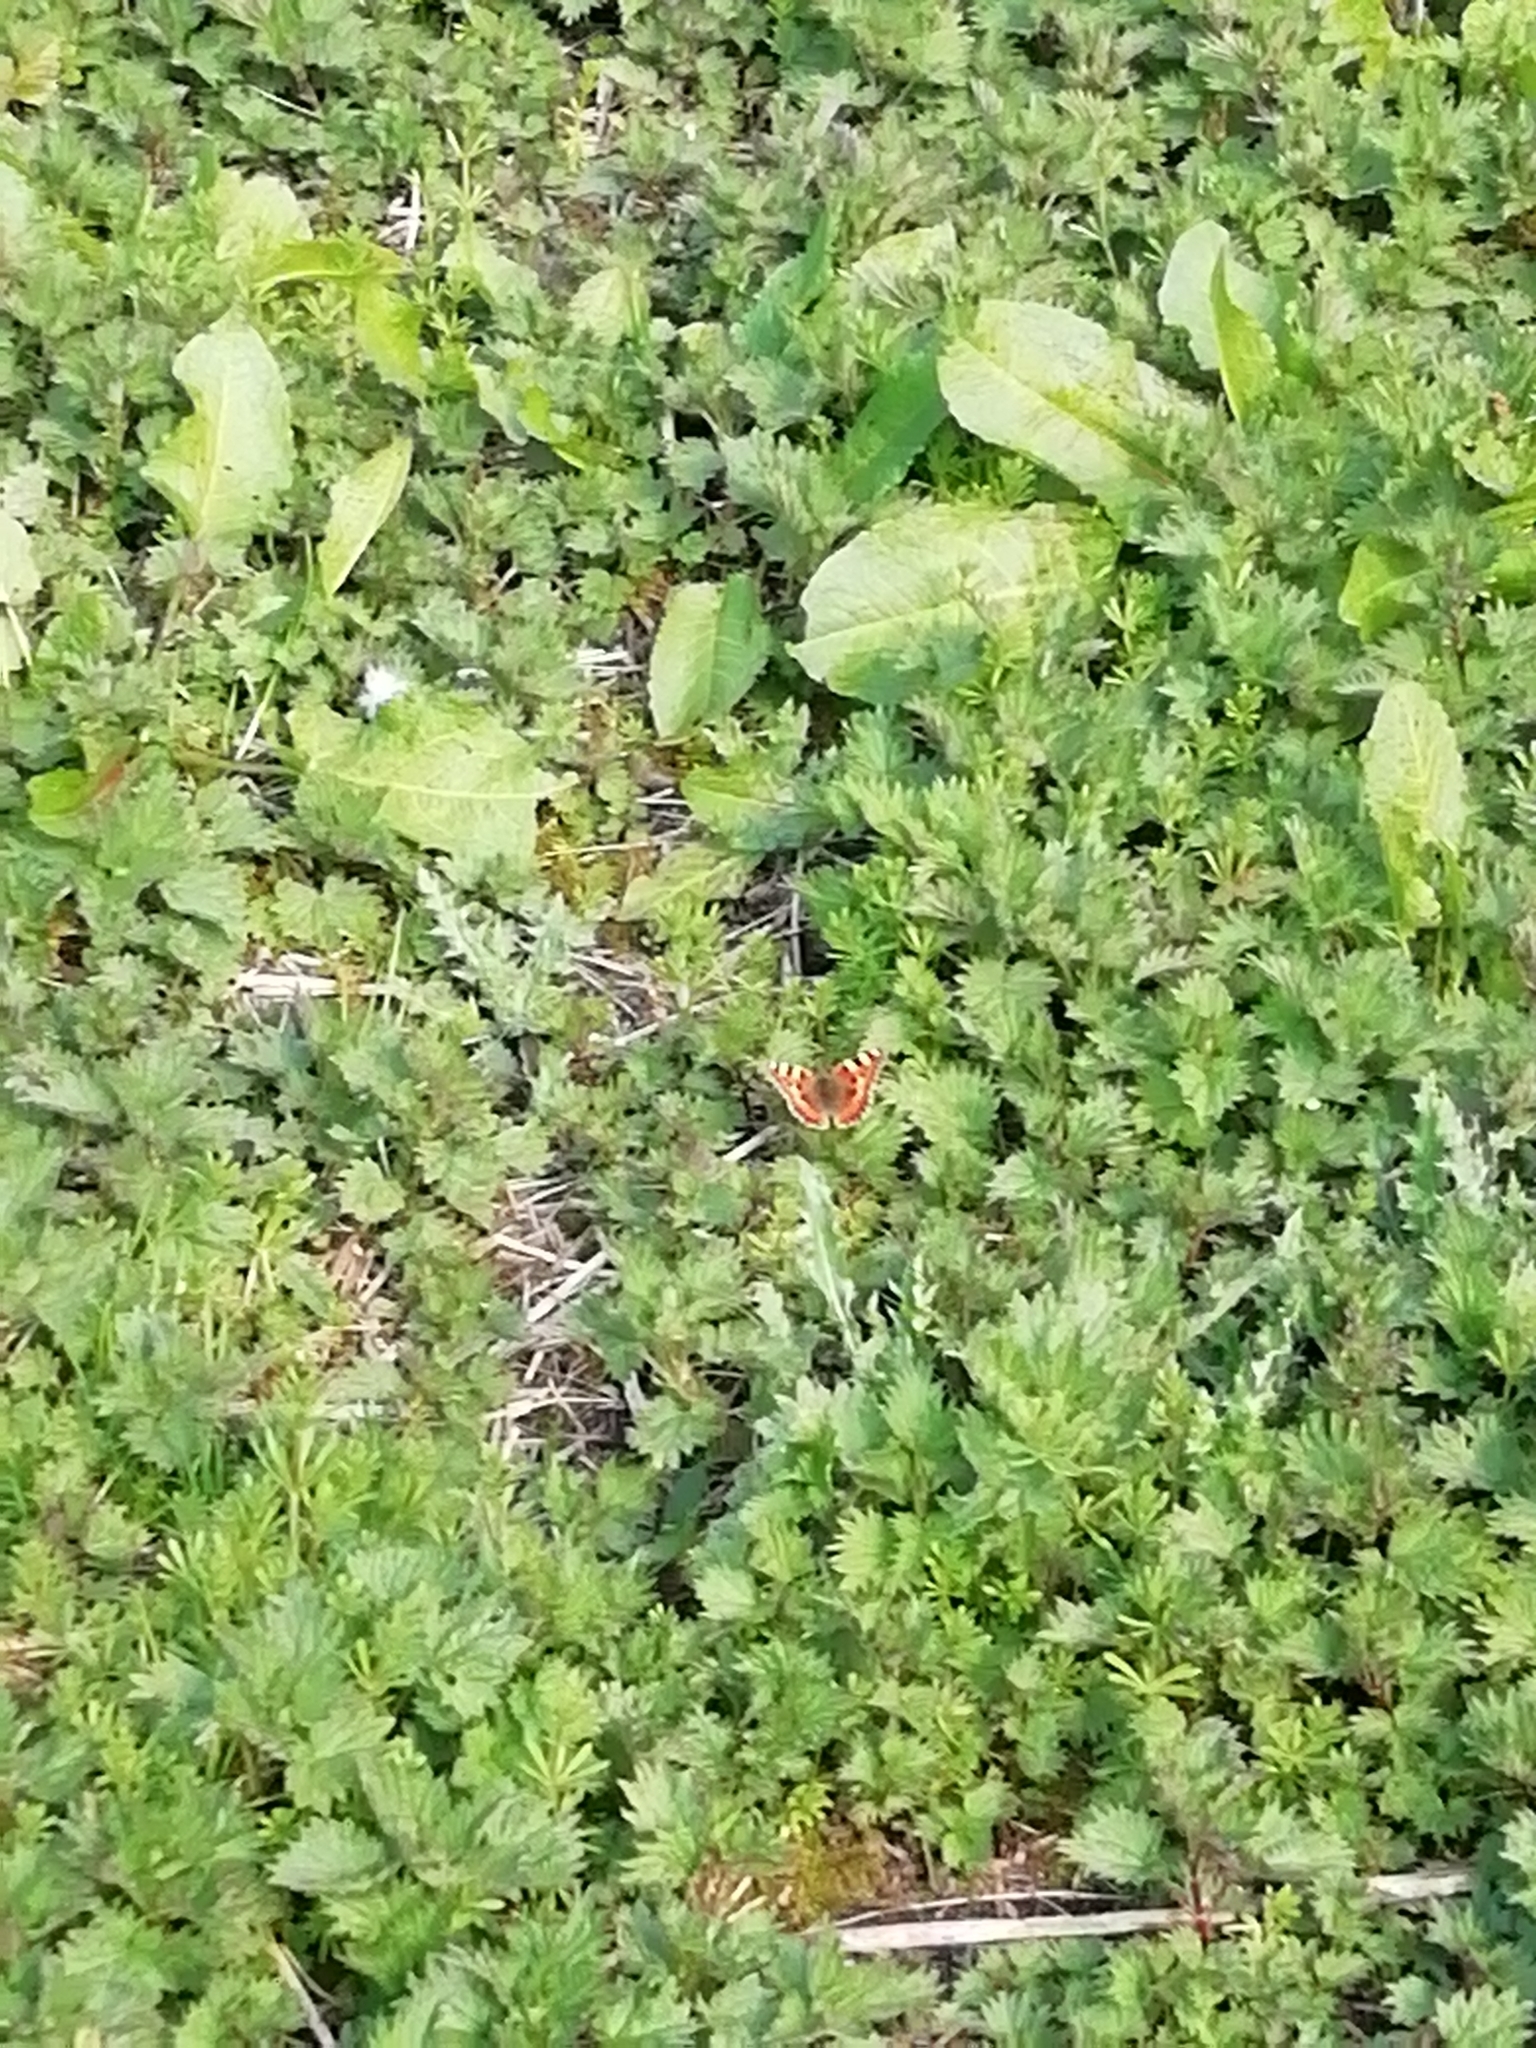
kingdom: Animalia
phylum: Arthropoda
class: Insecta
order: Lepidoptera
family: Nymphalidae
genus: Aglais
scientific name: Aglais urticae
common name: Small tortoiseshell
